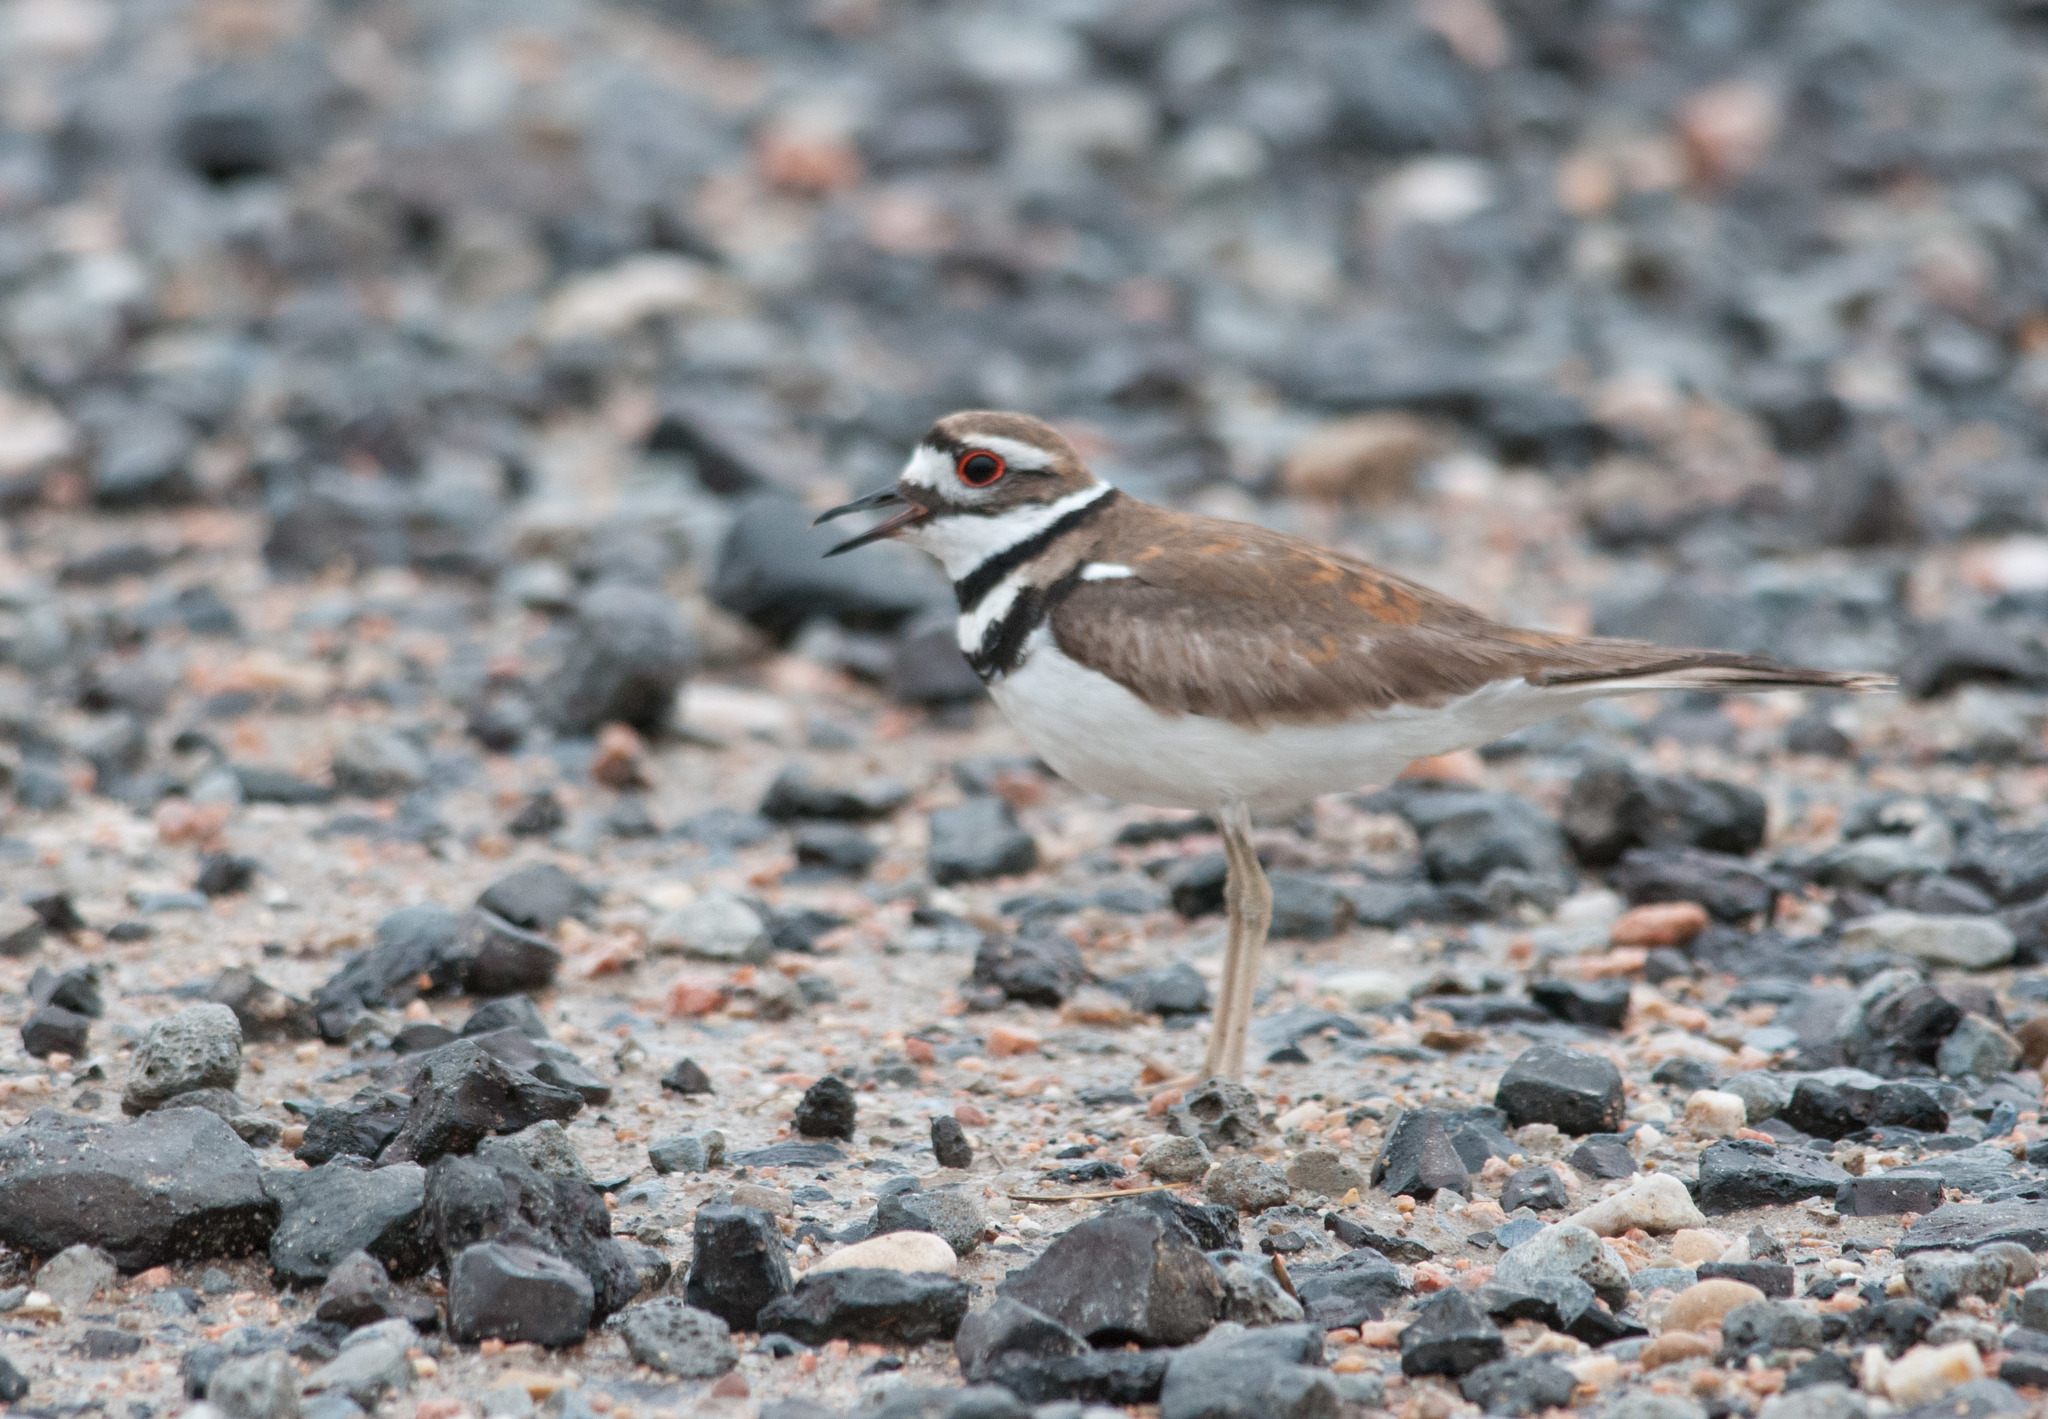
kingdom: Animalia
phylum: Chordata
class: Aves
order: Charadriiformes
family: Charadriidae
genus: Charadrius
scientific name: Charadrius vociferus
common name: Killdeer
